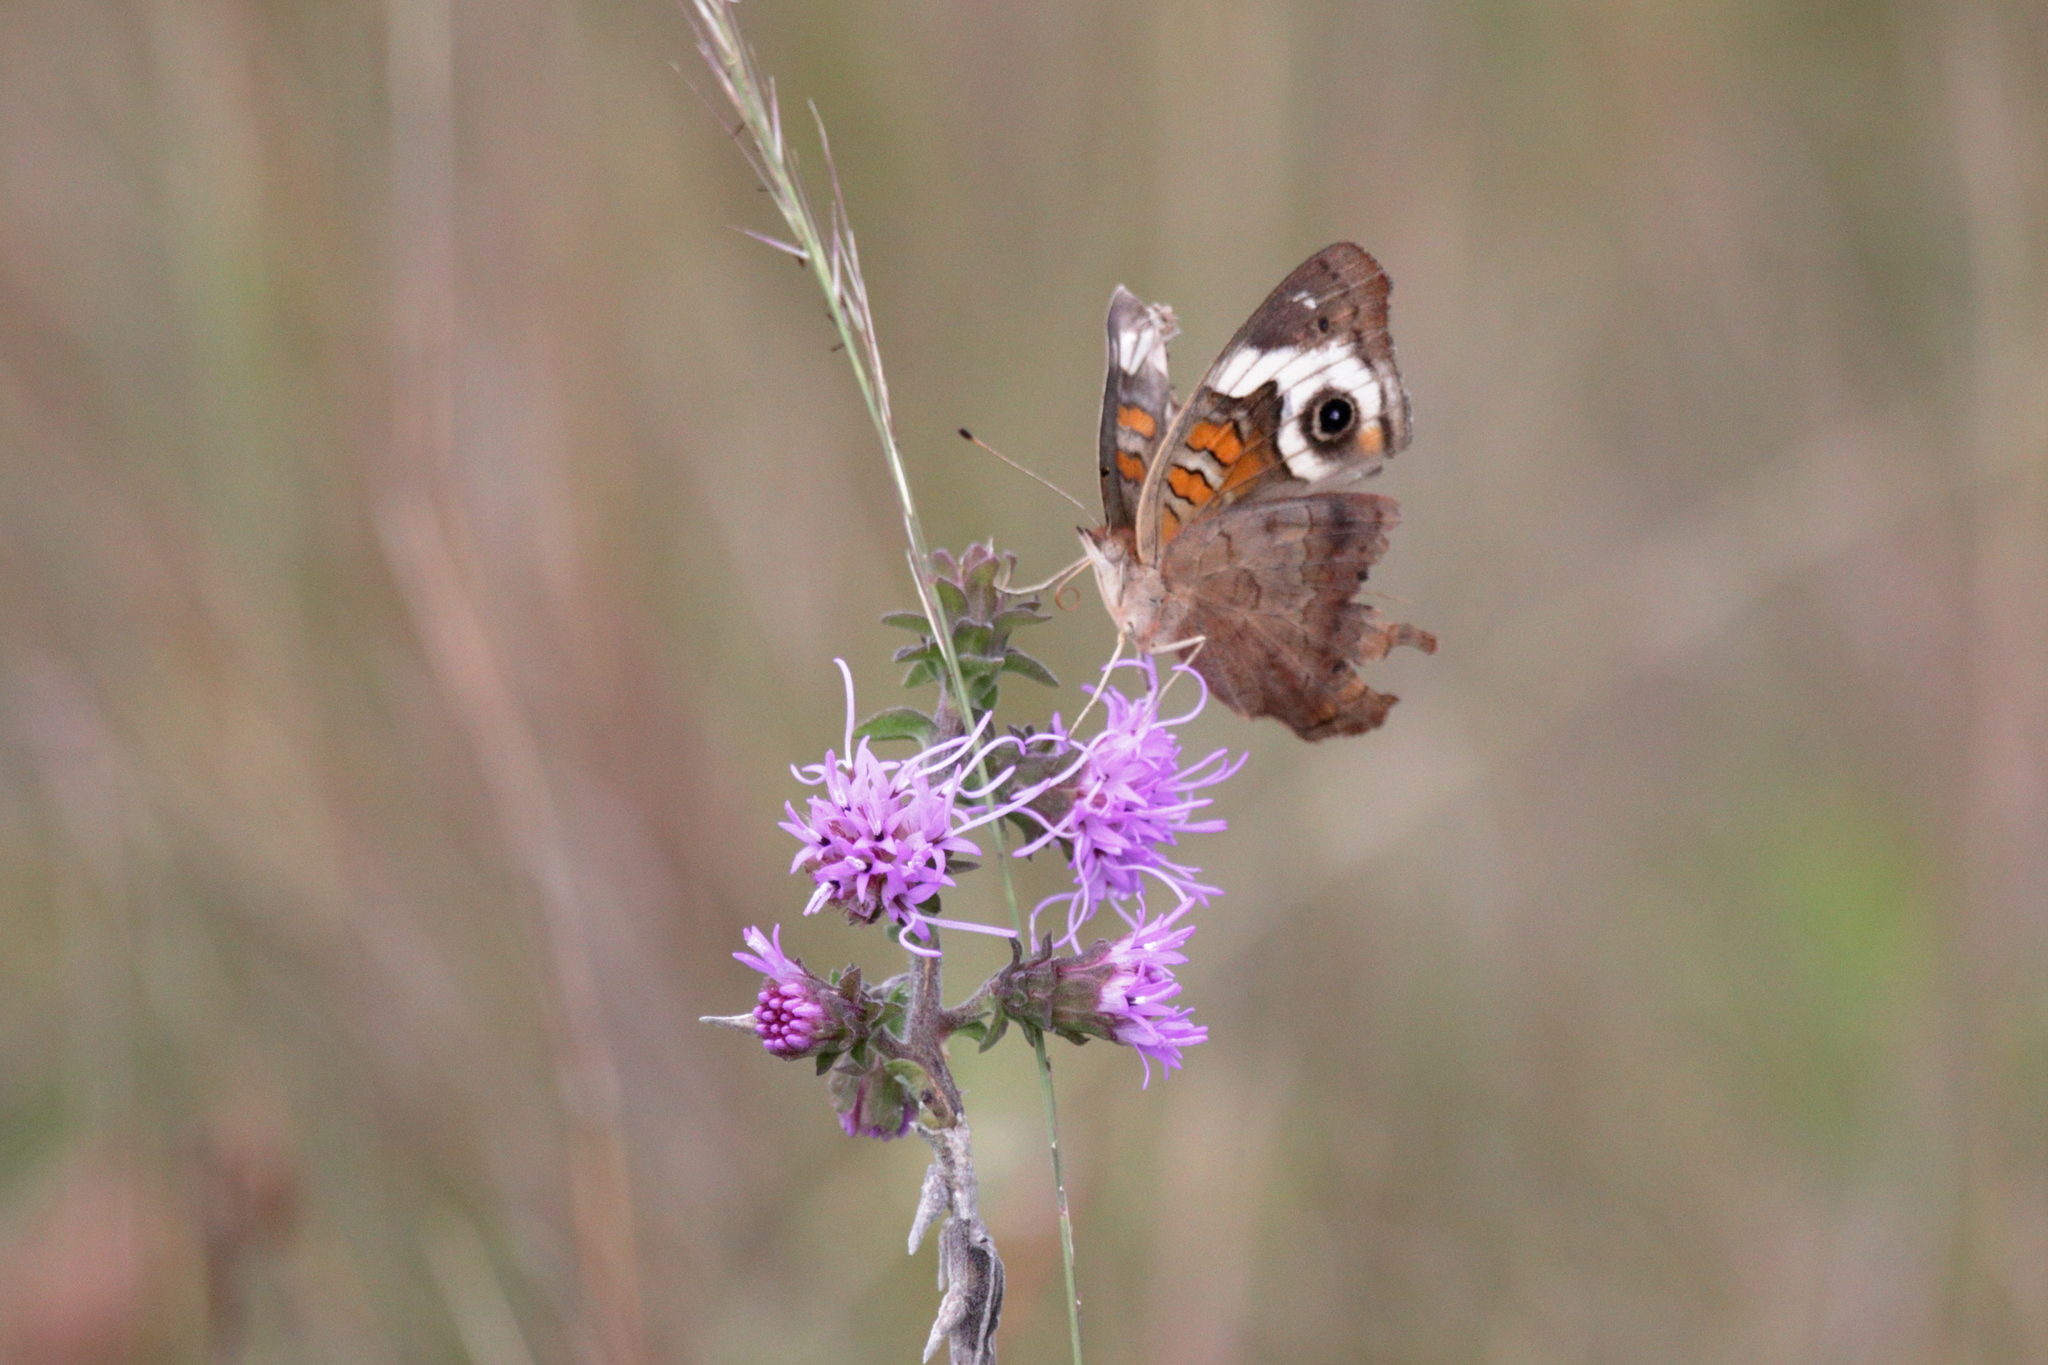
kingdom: Animalia
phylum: Arthropoda
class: Insecta
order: Lepidoptera
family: Nymphalidae
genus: Junonia
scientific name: Junonia coenia
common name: Common buckeye
